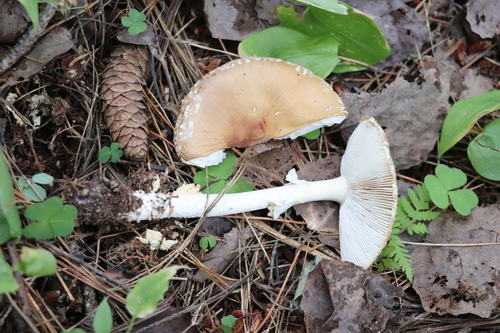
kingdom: Fungi
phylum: Basidiomycota
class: Agaricomycetes
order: Agaricales
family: Amanitaceae
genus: Amanita
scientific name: Amanita regalis
